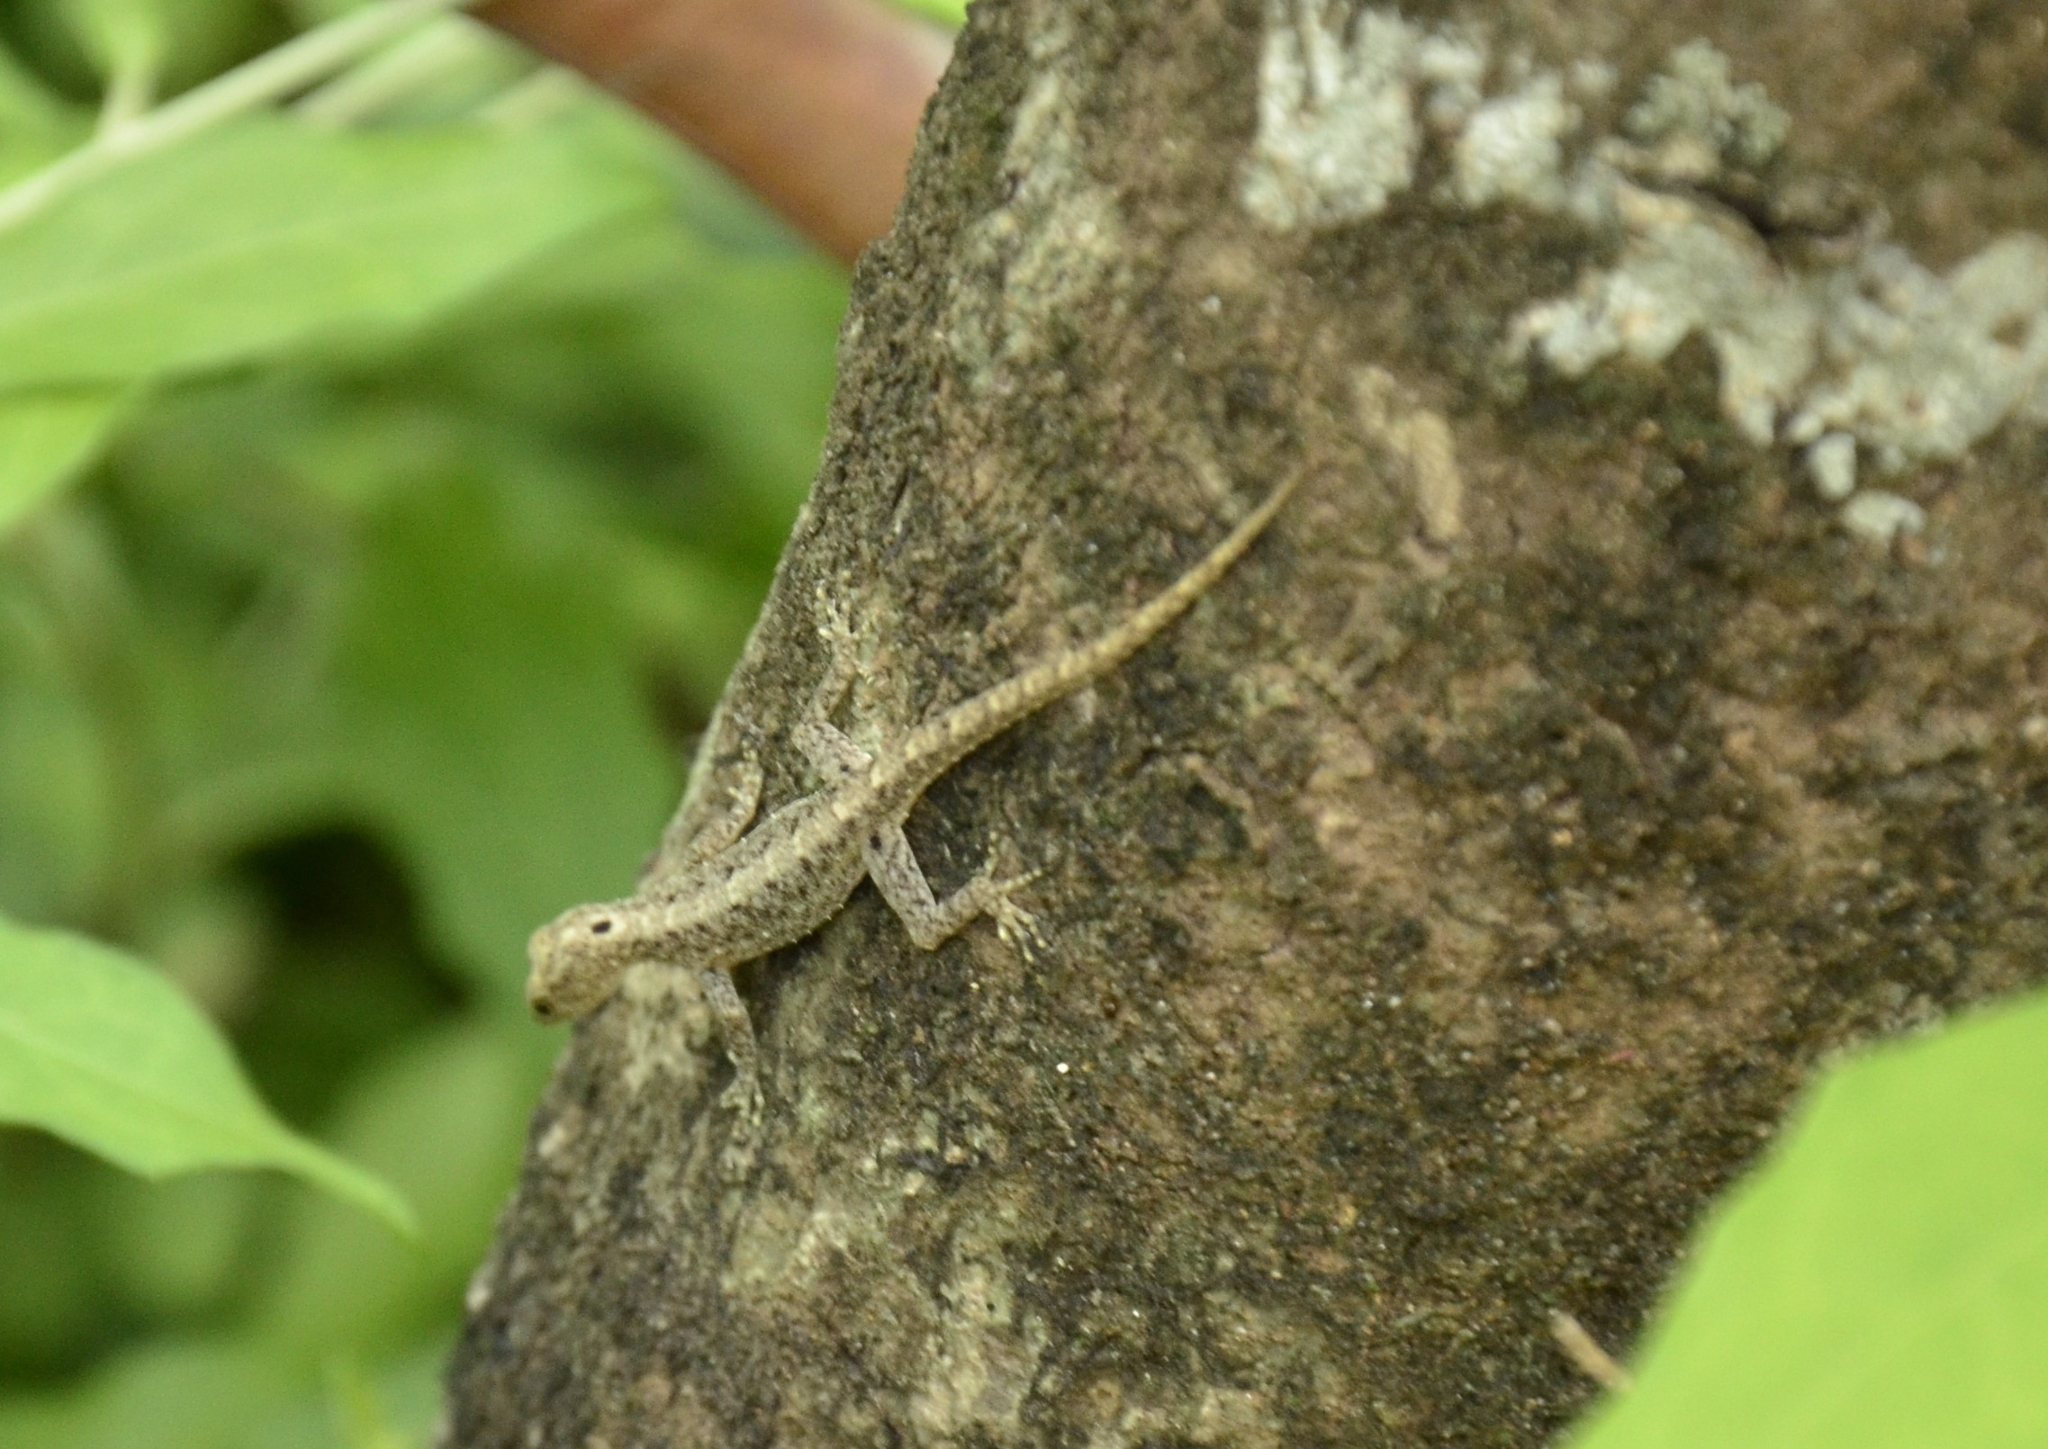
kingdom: Animalia
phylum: Chordata
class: Squamata
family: Gekkonidae
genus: Cnemaspis
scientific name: Cnemaspis littoralis
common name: Coastal day gecko
